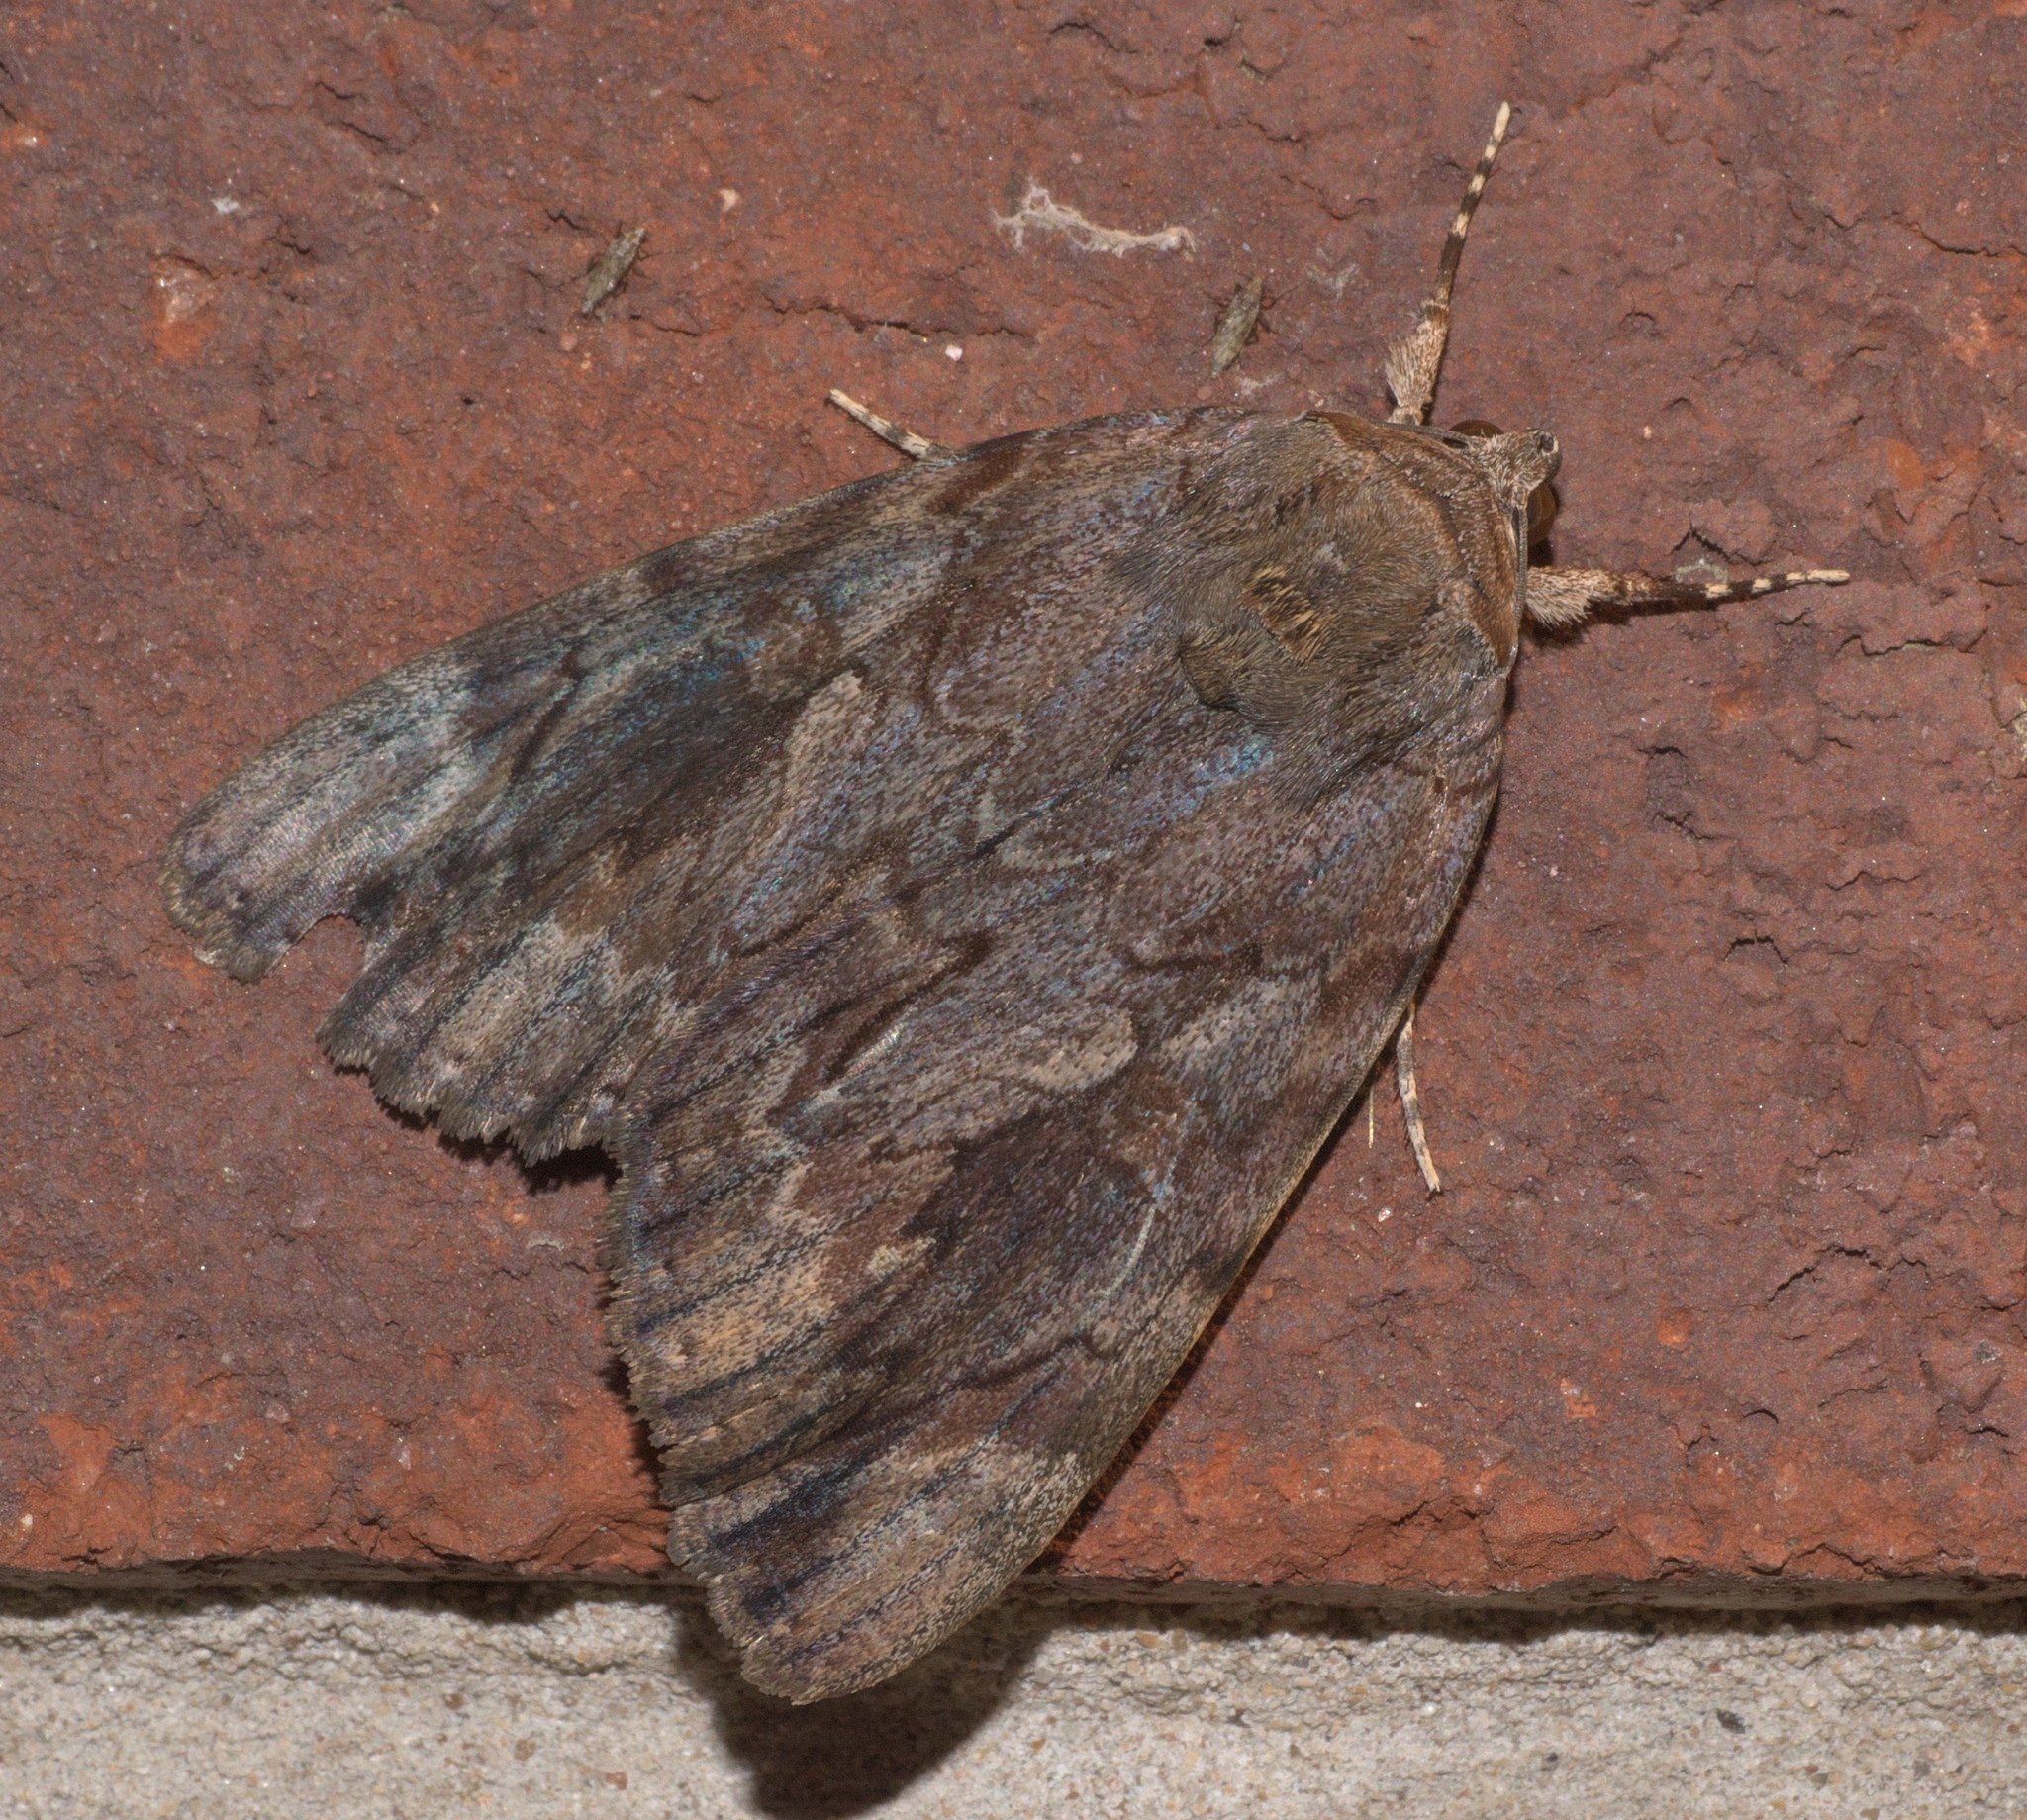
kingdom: Animalia
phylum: Arthropoda
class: Insecta
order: Lepidoptera
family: Erebidae
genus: Catocala
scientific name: Catocala agrippina
